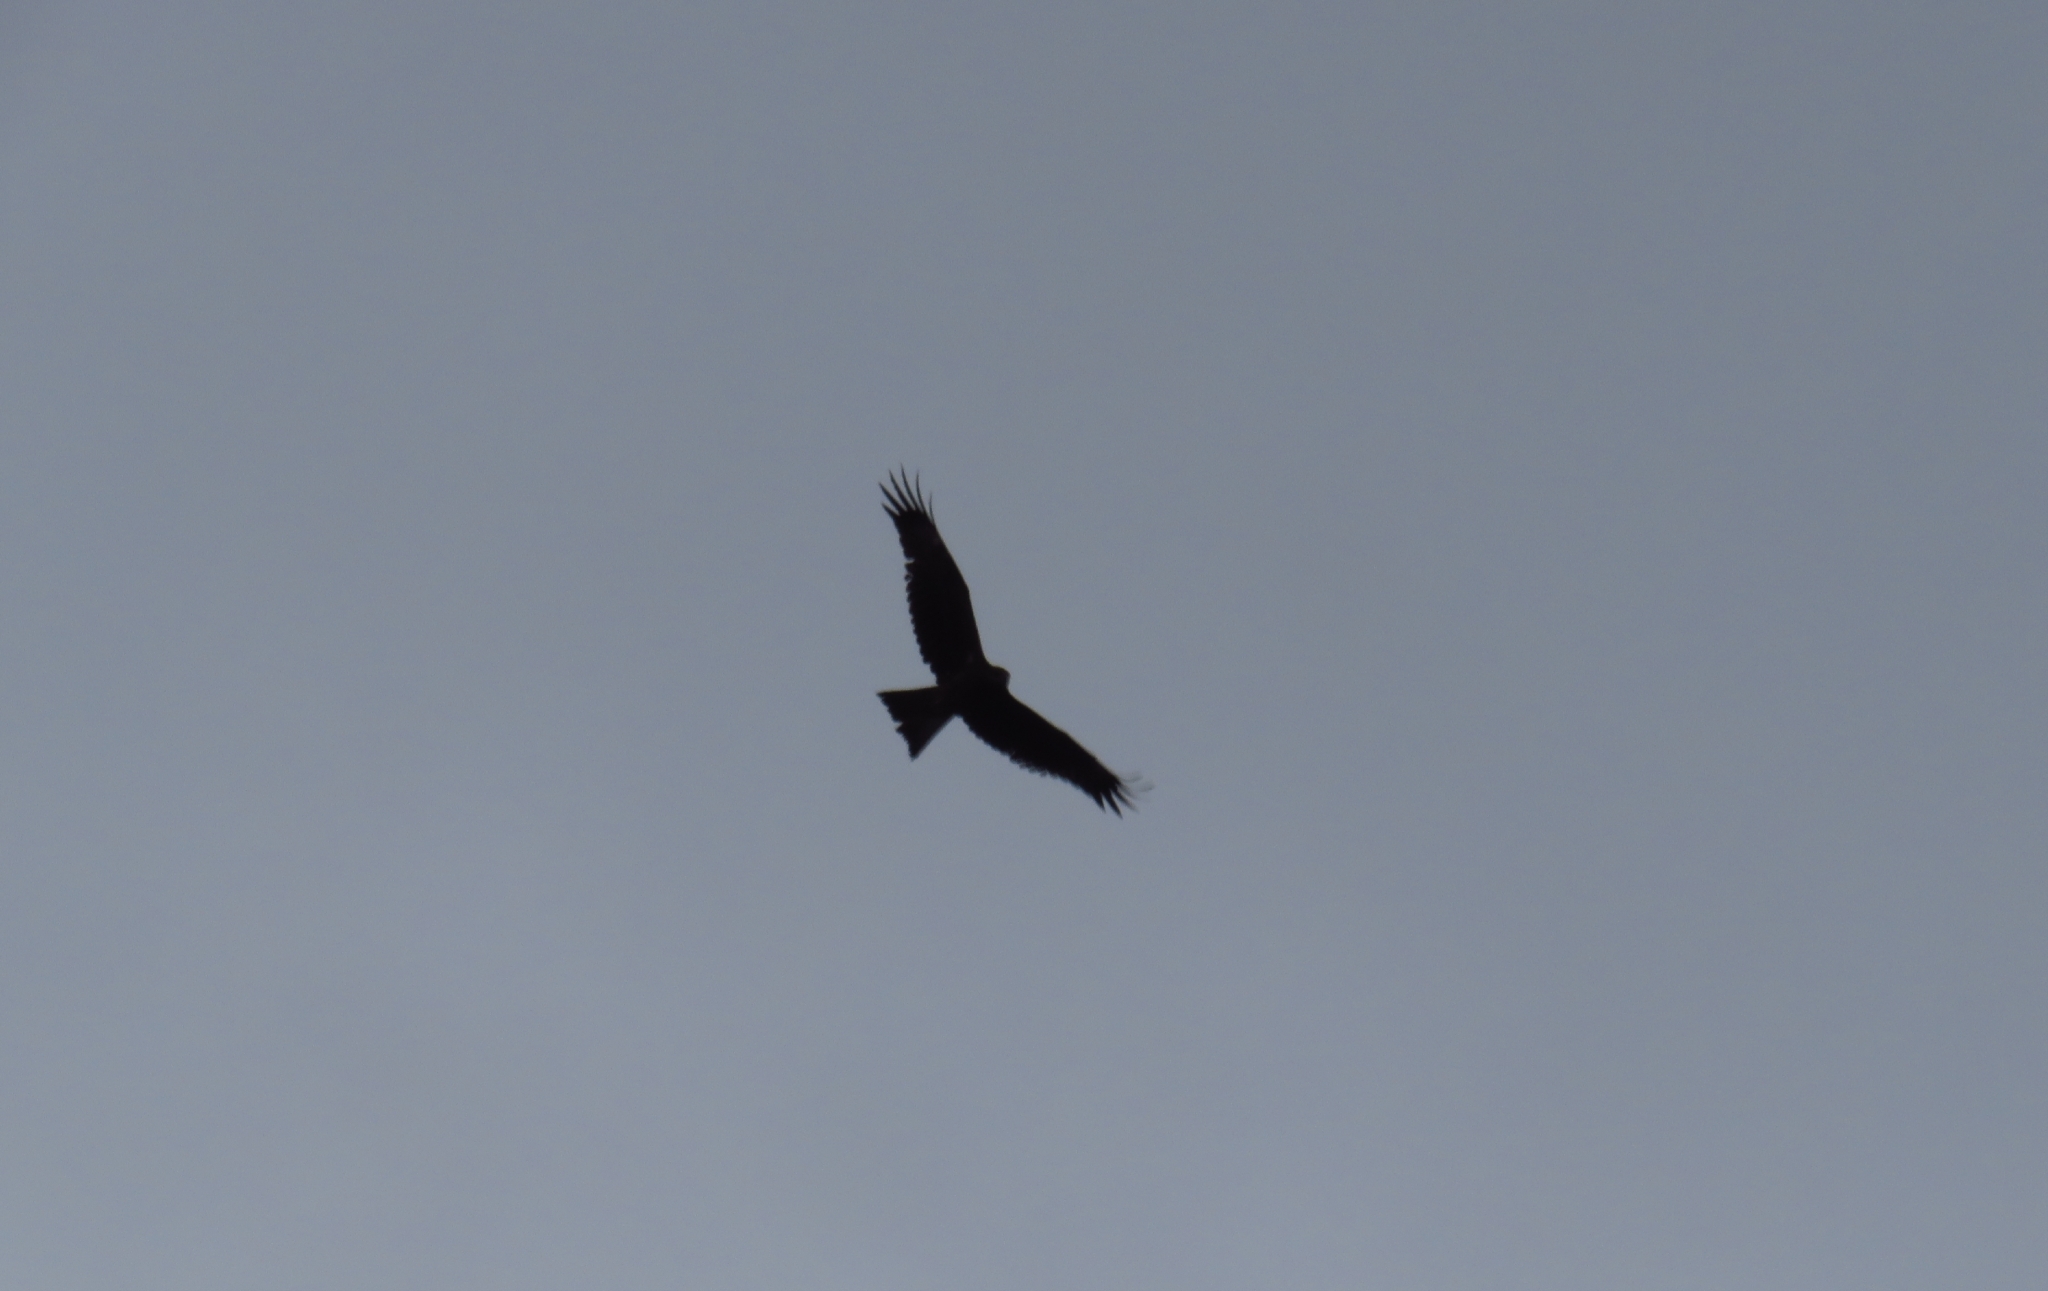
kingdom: Animalia
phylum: Chordata
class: Aves
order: Accipitriformes
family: Accipitridae
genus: Milvus
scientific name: Milvus migrans
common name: Black kite
